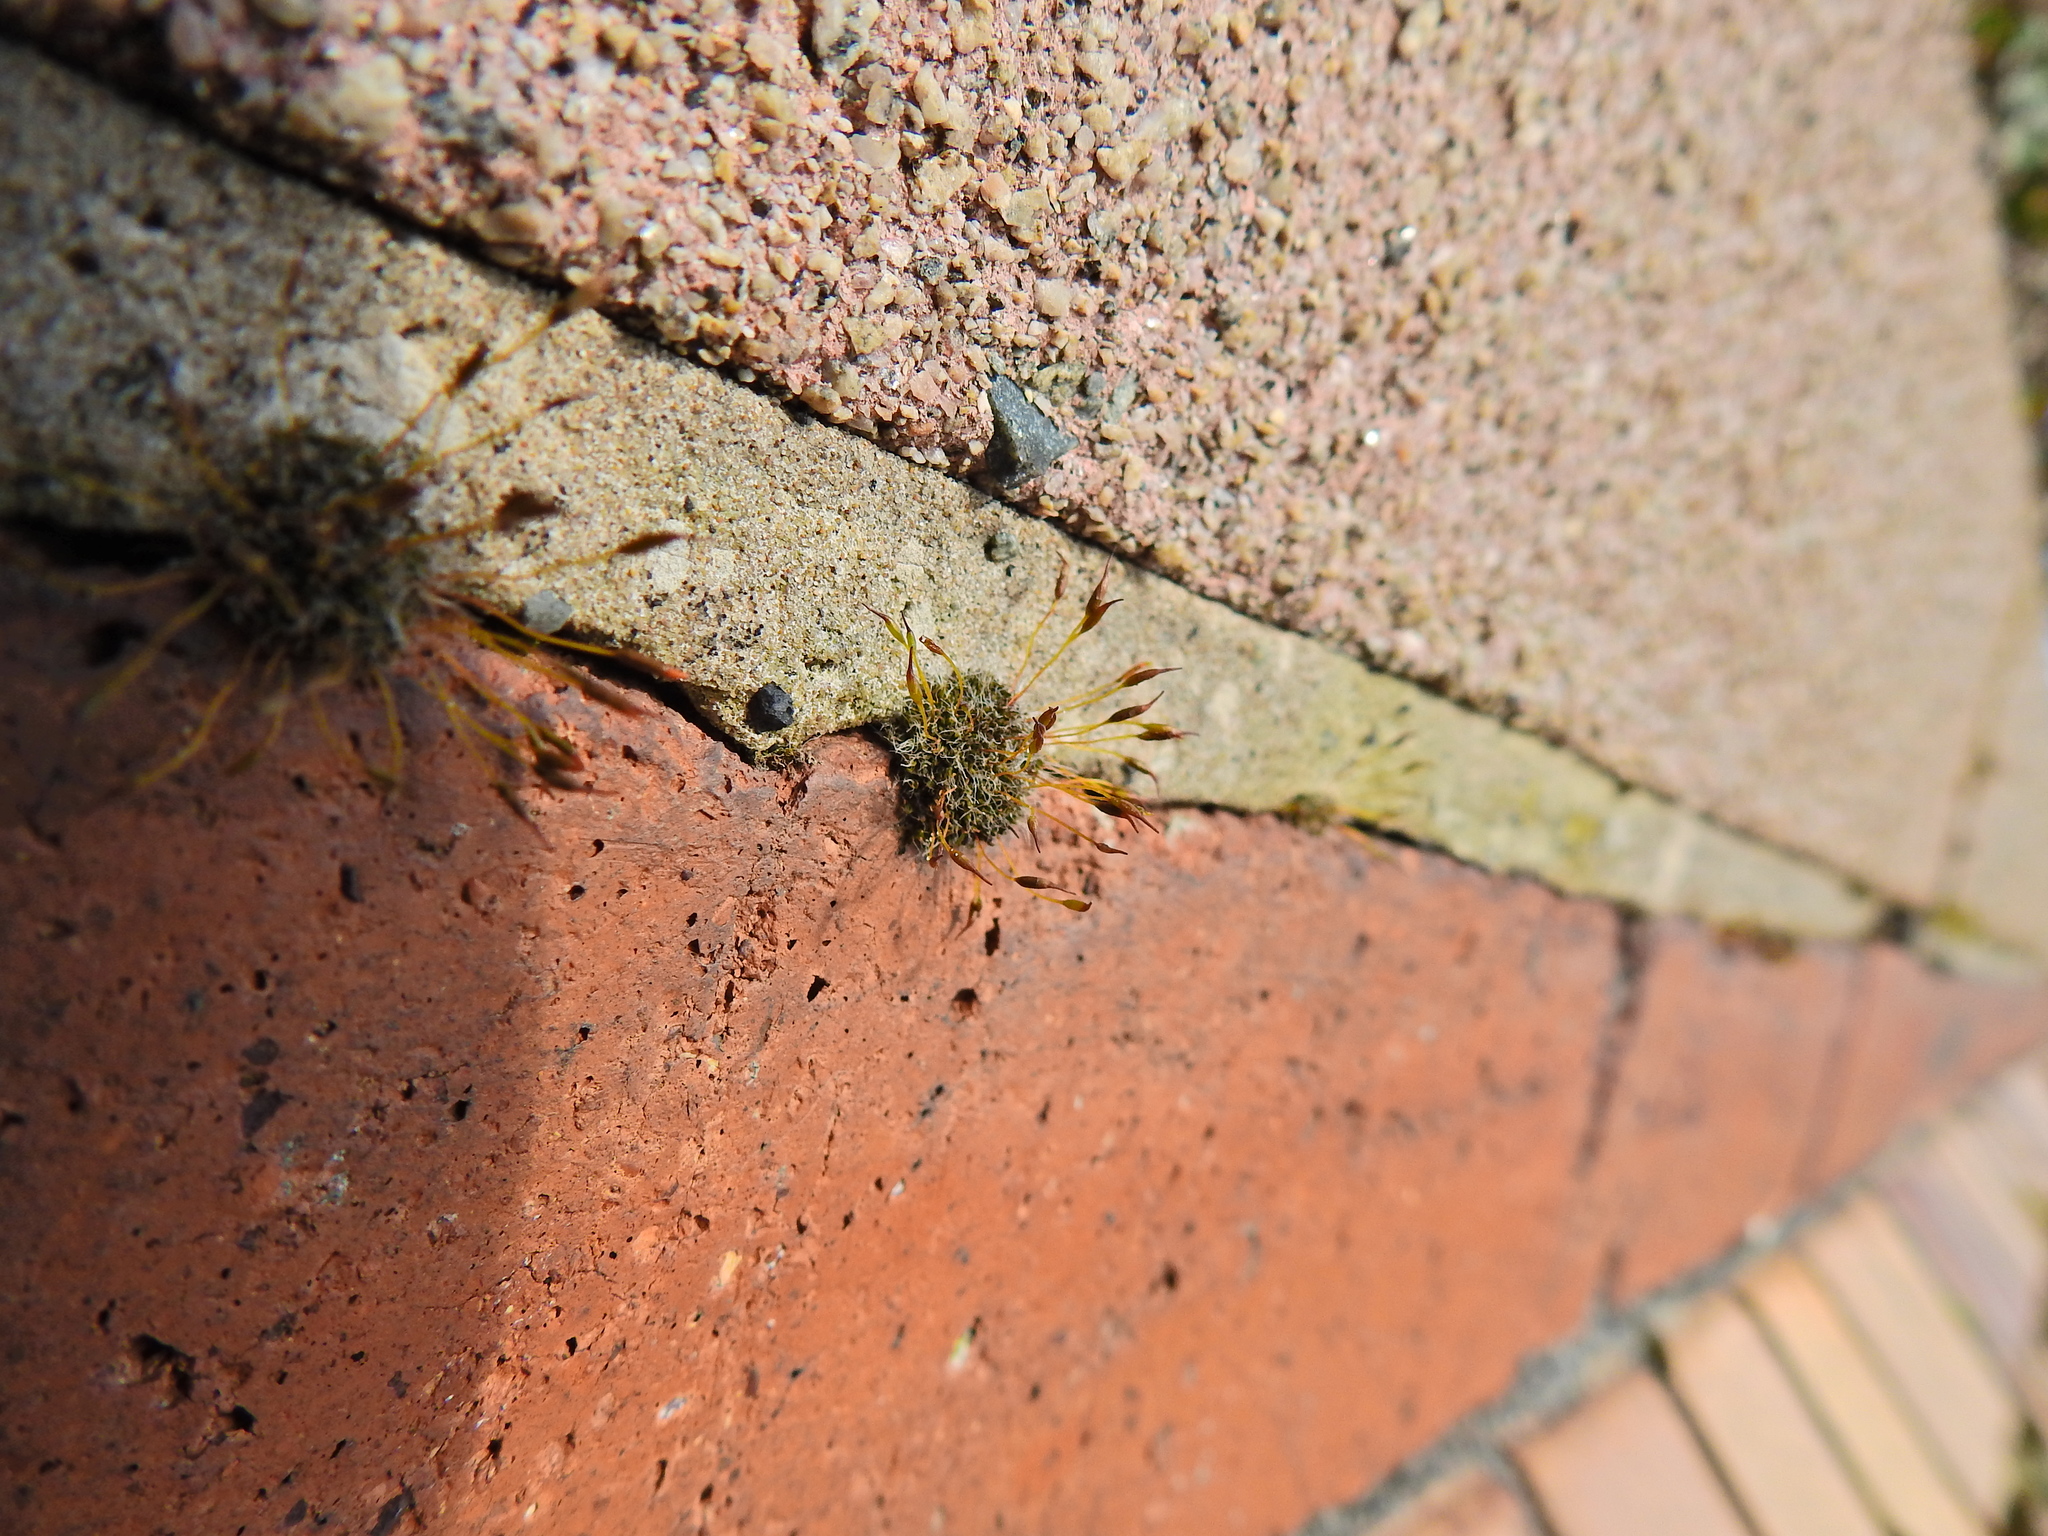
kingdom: Plantae
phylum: Bryophyta
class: Bryopsida
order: Pottiales
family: Pottiaceae
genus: Tortula
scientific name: Tortula muralis
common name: Wall screw-moss
